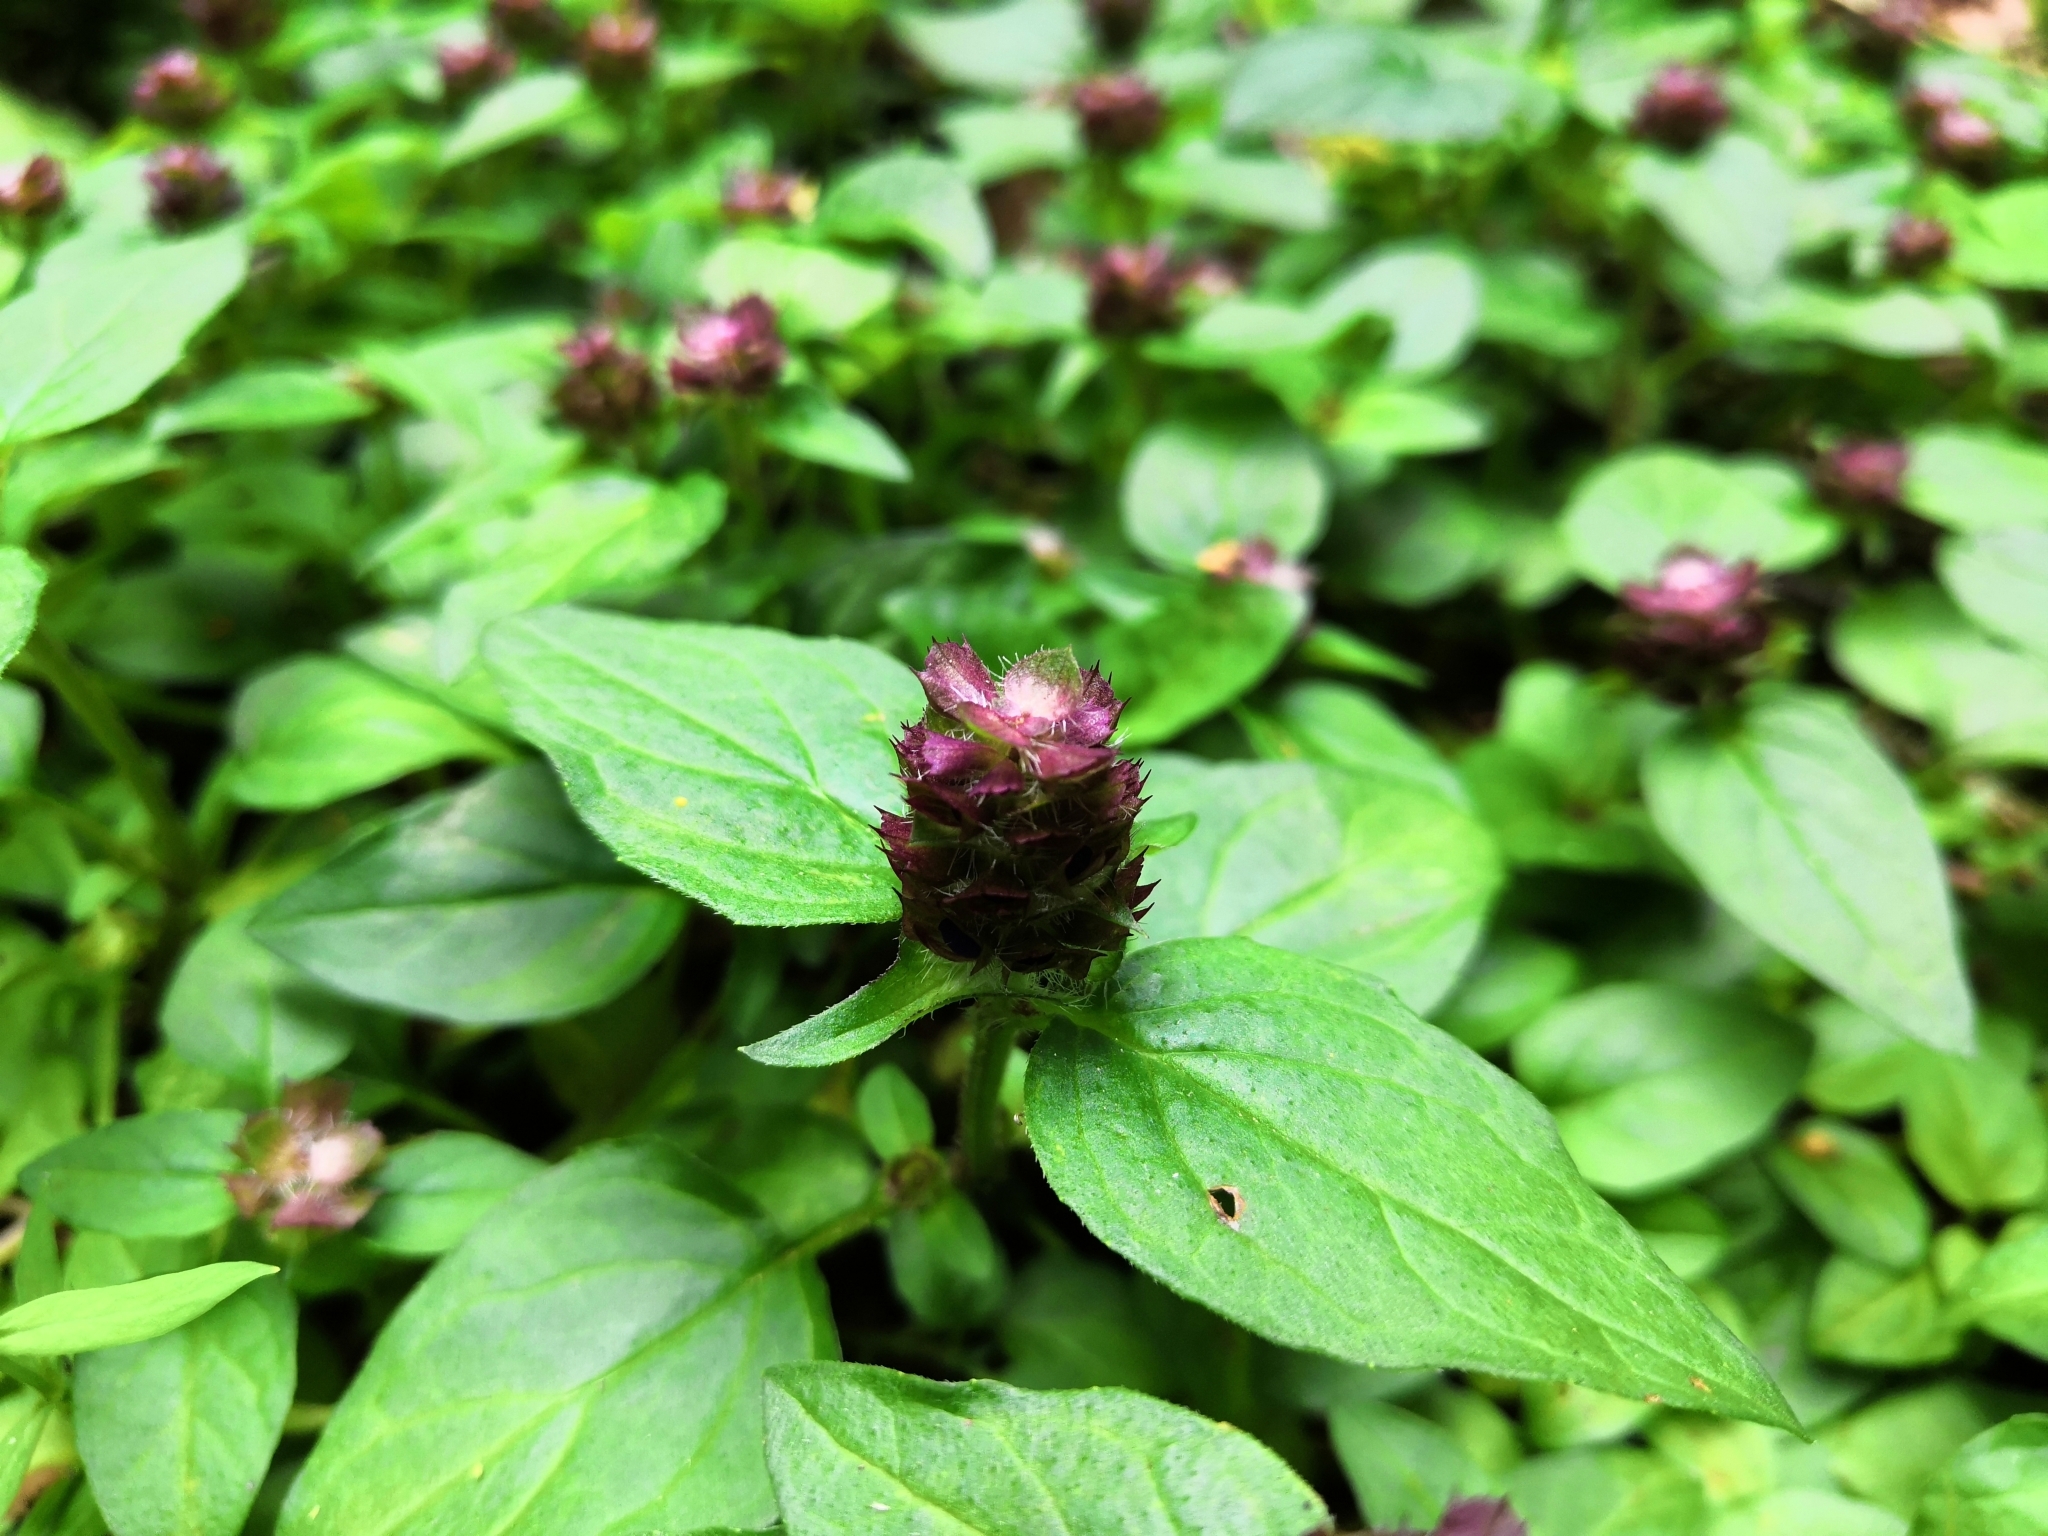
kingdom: Plantae
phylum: Tracheophyta
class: Magnoliopsida
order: Lamiales
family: Lamiaceae
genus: Prunella
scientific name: Prunella vulgaris
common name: Heal-all
